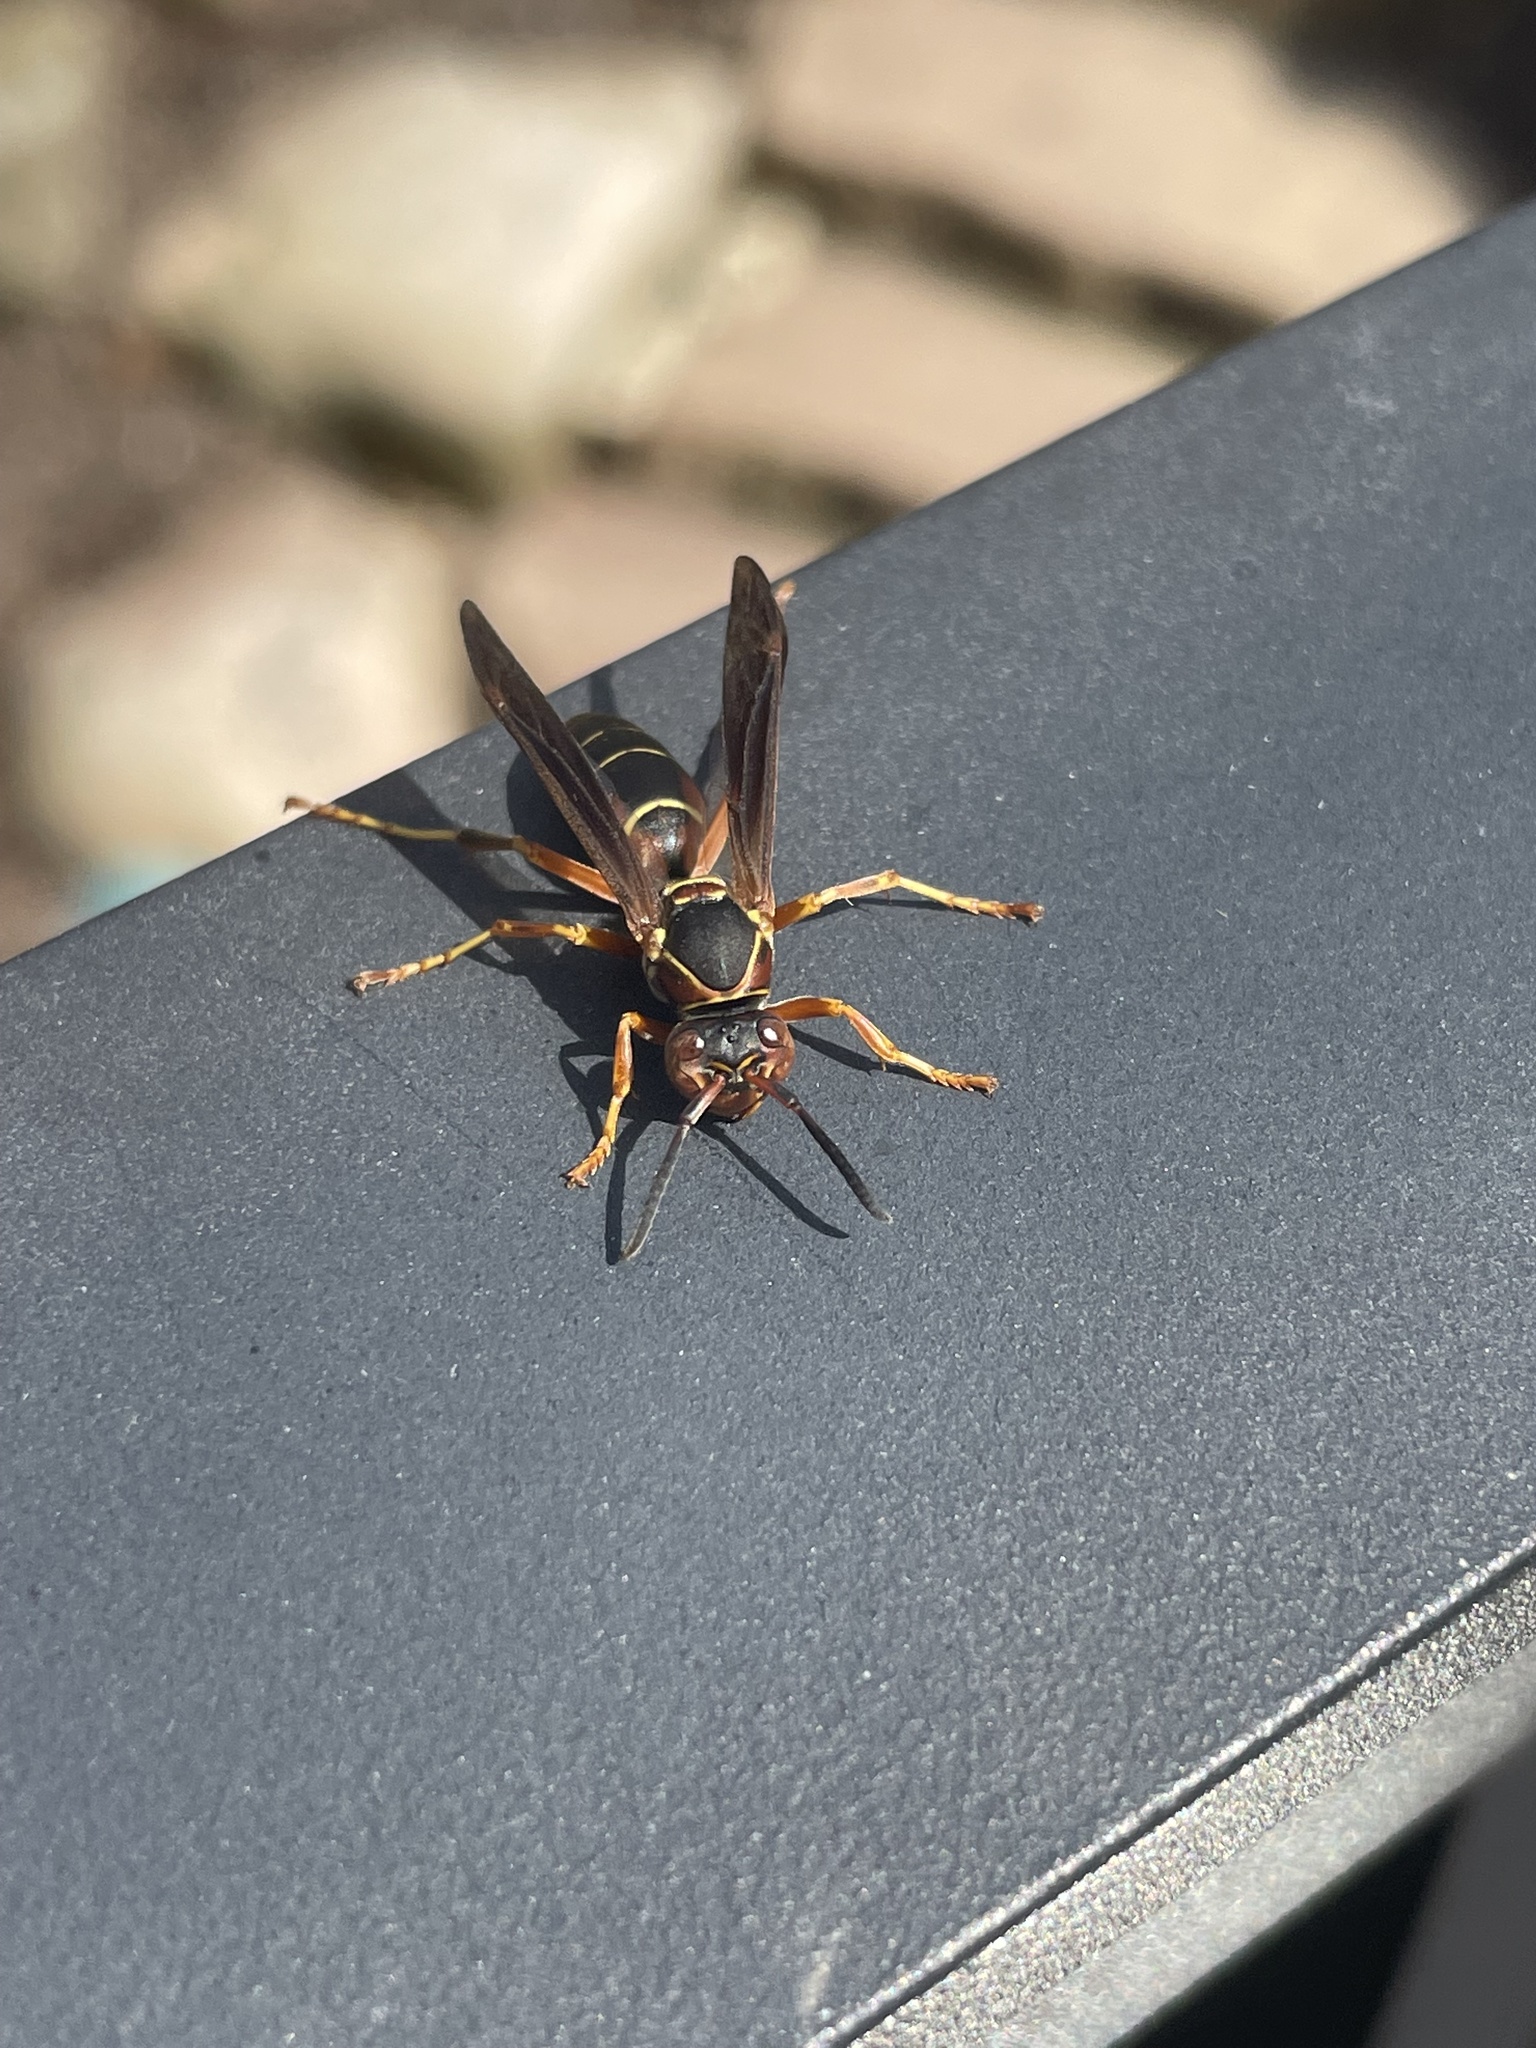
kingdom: Animalia
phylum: Arthropoda
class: Insecta
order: Hymenoptera
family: Eumenidae
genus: Polistes
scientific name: Polistes fuscatus
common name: Dark paper wasp
